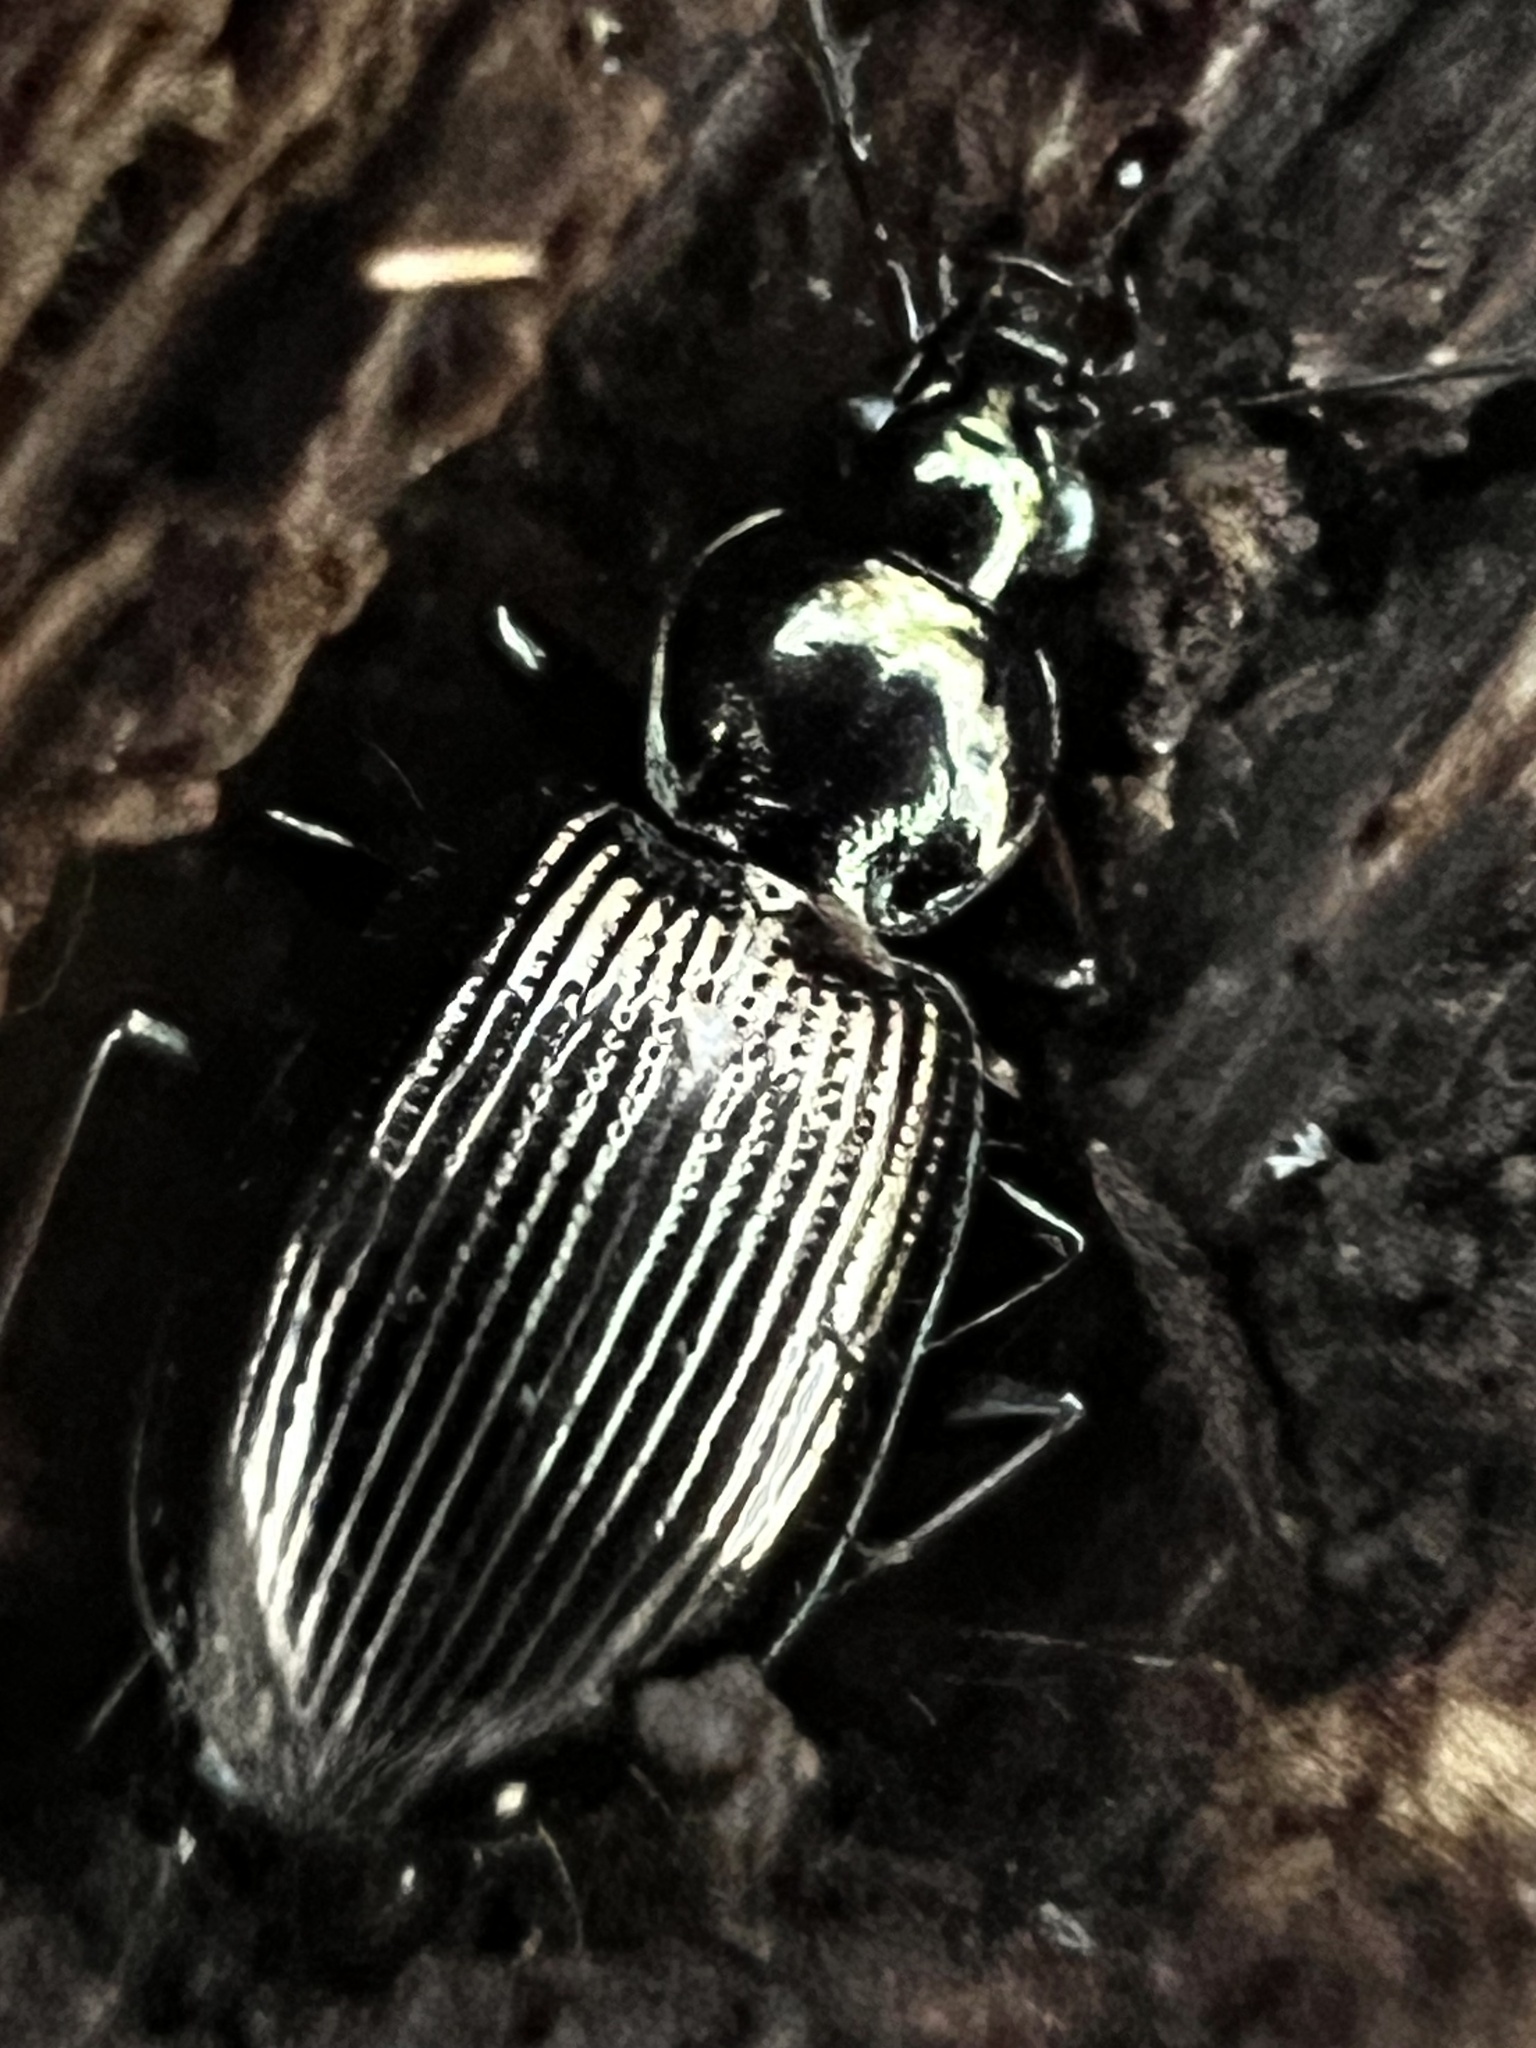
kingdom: Animalia
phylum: Arthropoda
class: Insecta
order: Coleoptera
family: Carabidae
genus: Agonum
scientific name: Agonum striatopunctatum
